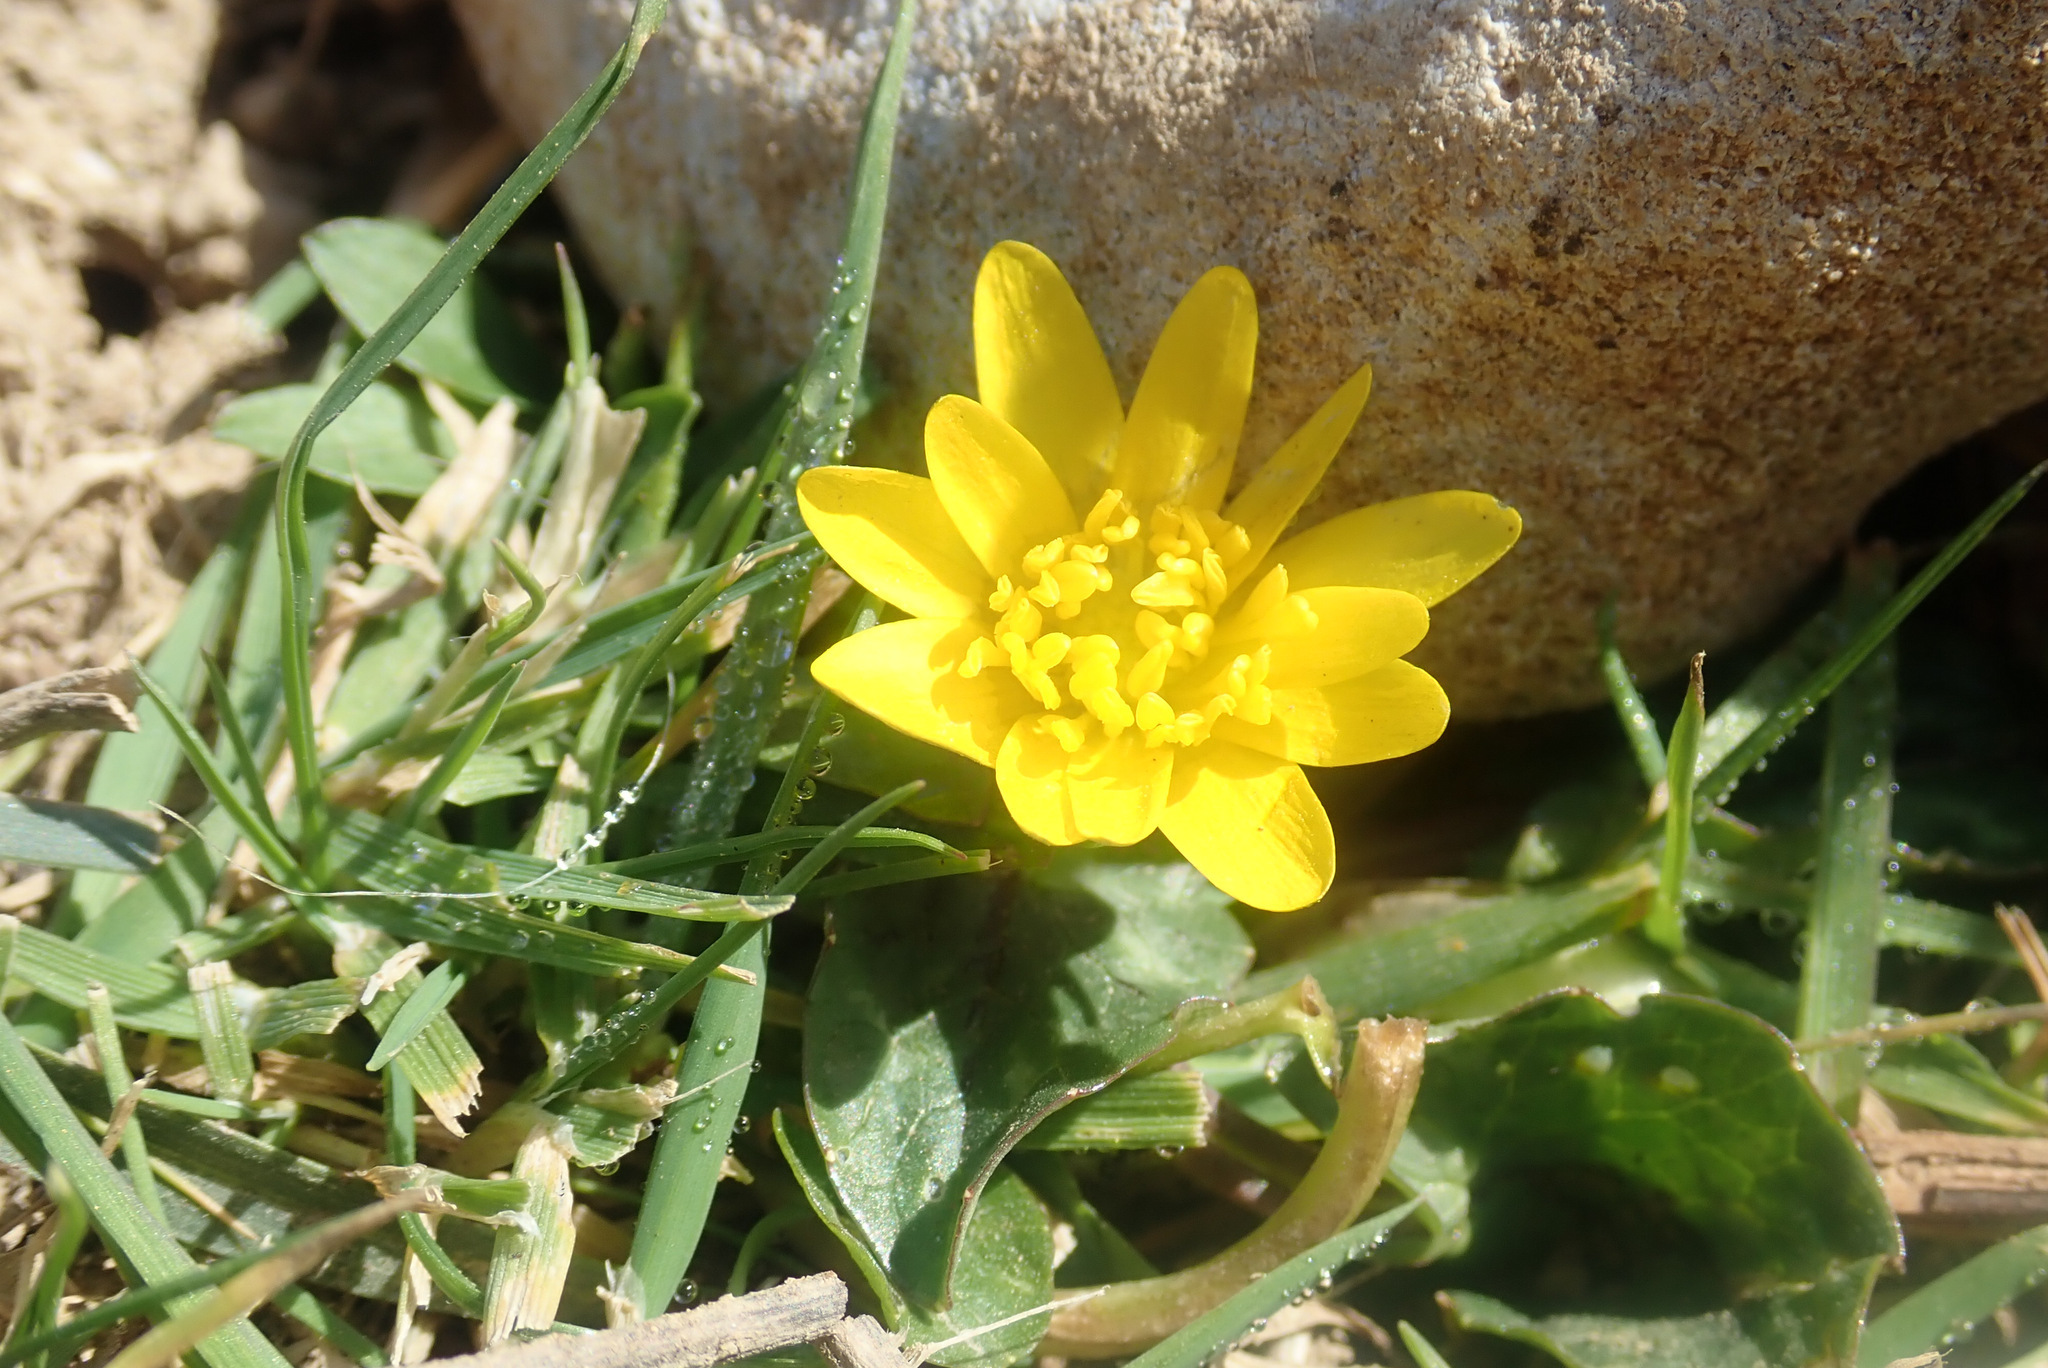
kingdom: Plantae
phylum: Tracheophyta
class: Magnoliopsida
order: Ranunculales
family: Ranunculaceae
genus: Ficaria
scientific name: Ficaria verna
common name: Lesser celandine
